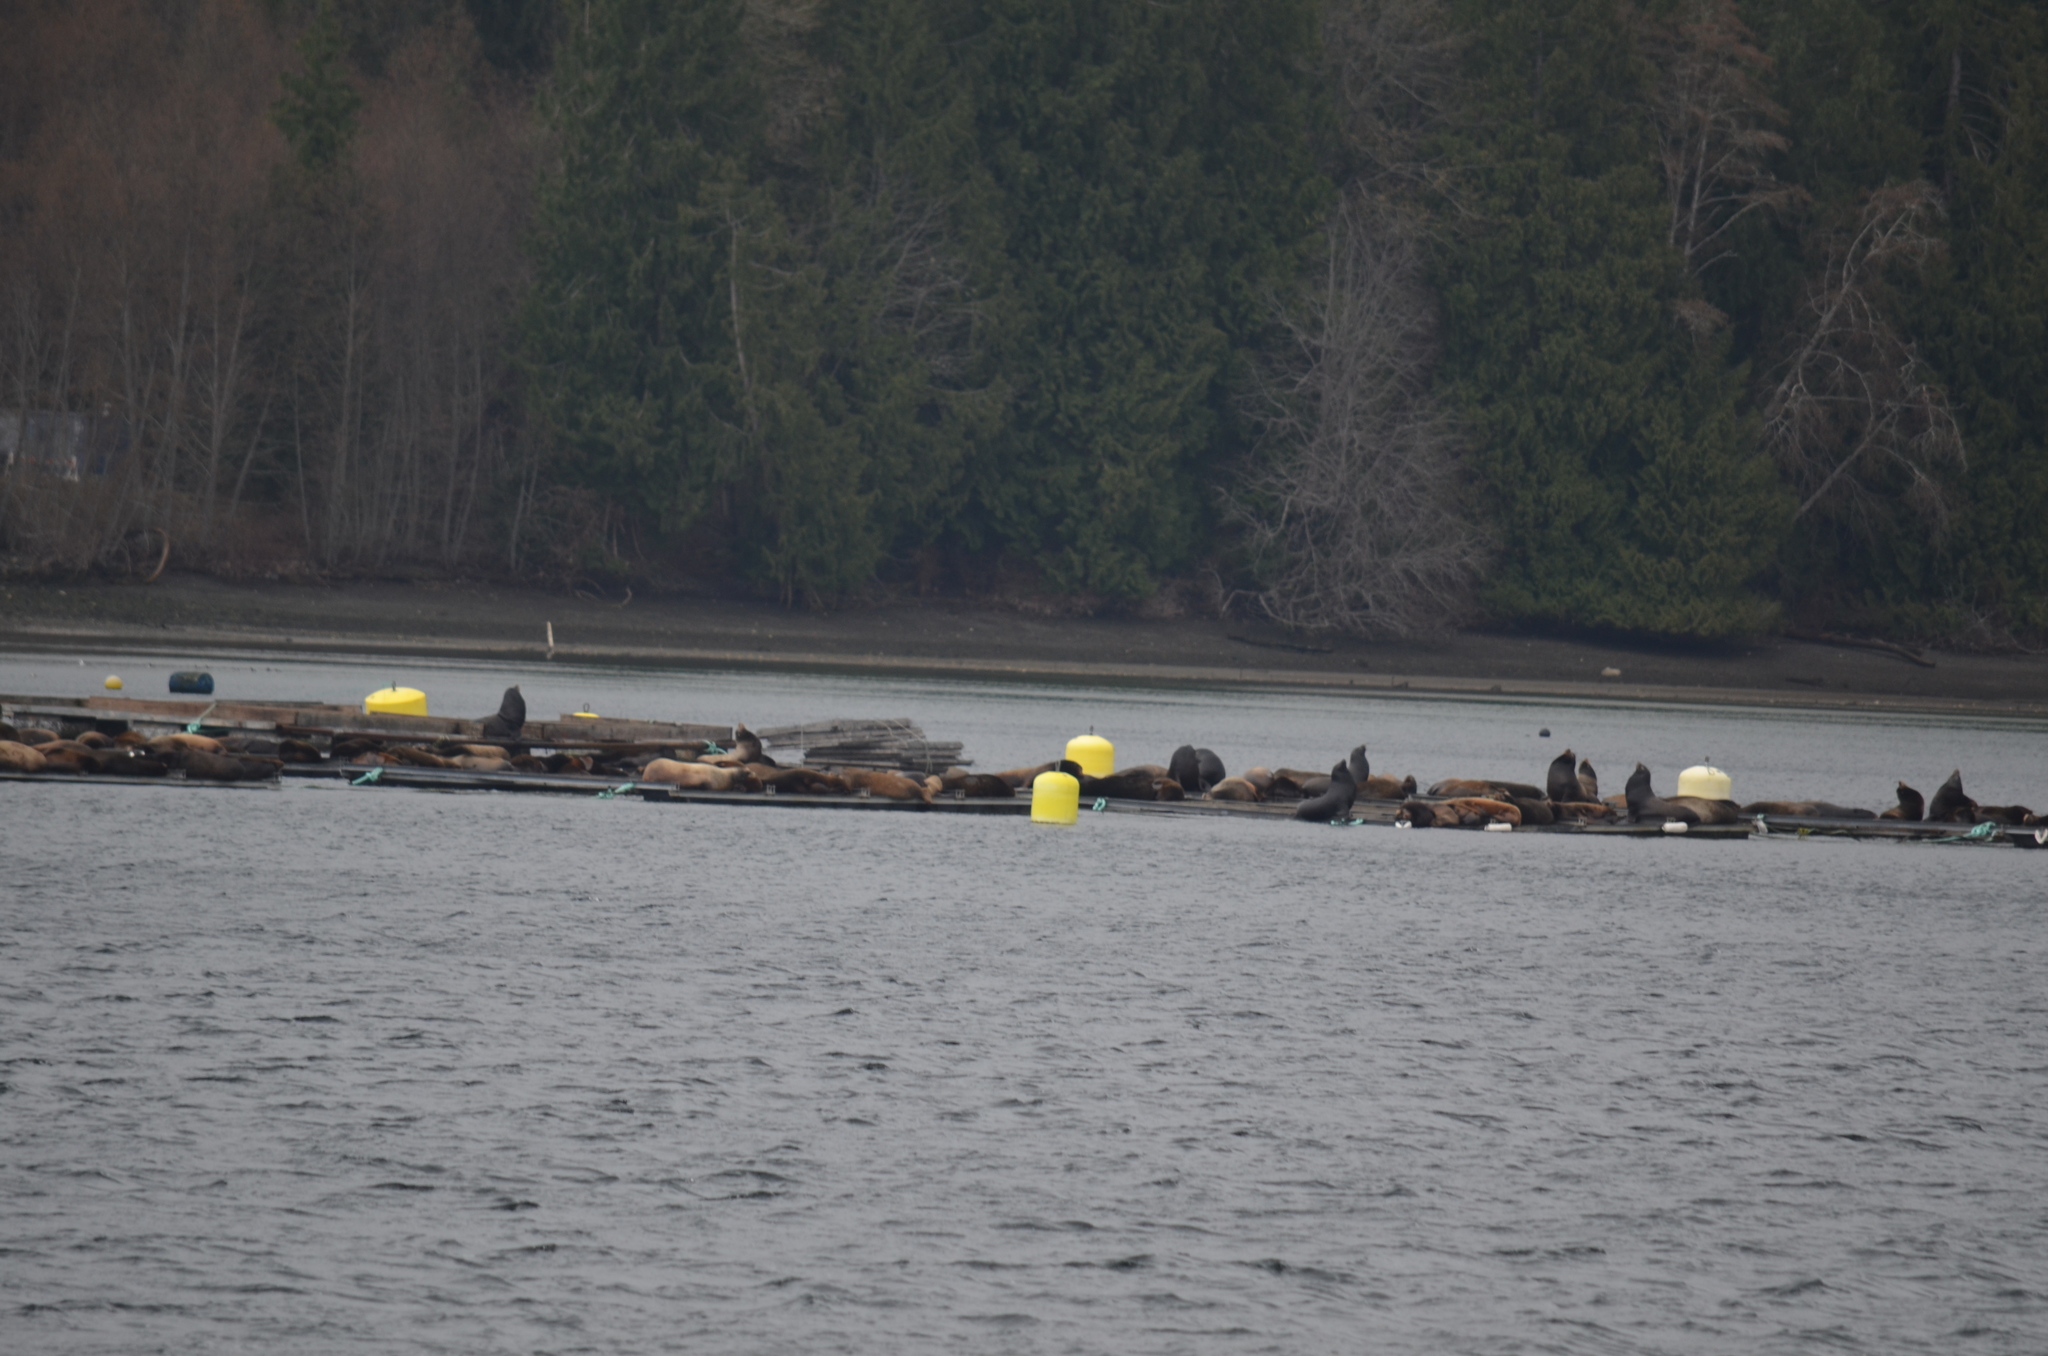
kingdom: Animalia
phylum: Chordata
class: Mammalia
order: Carnivora
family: Otariidae
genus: Zalophus
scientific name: Zalophus californianus
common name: California sea lion
